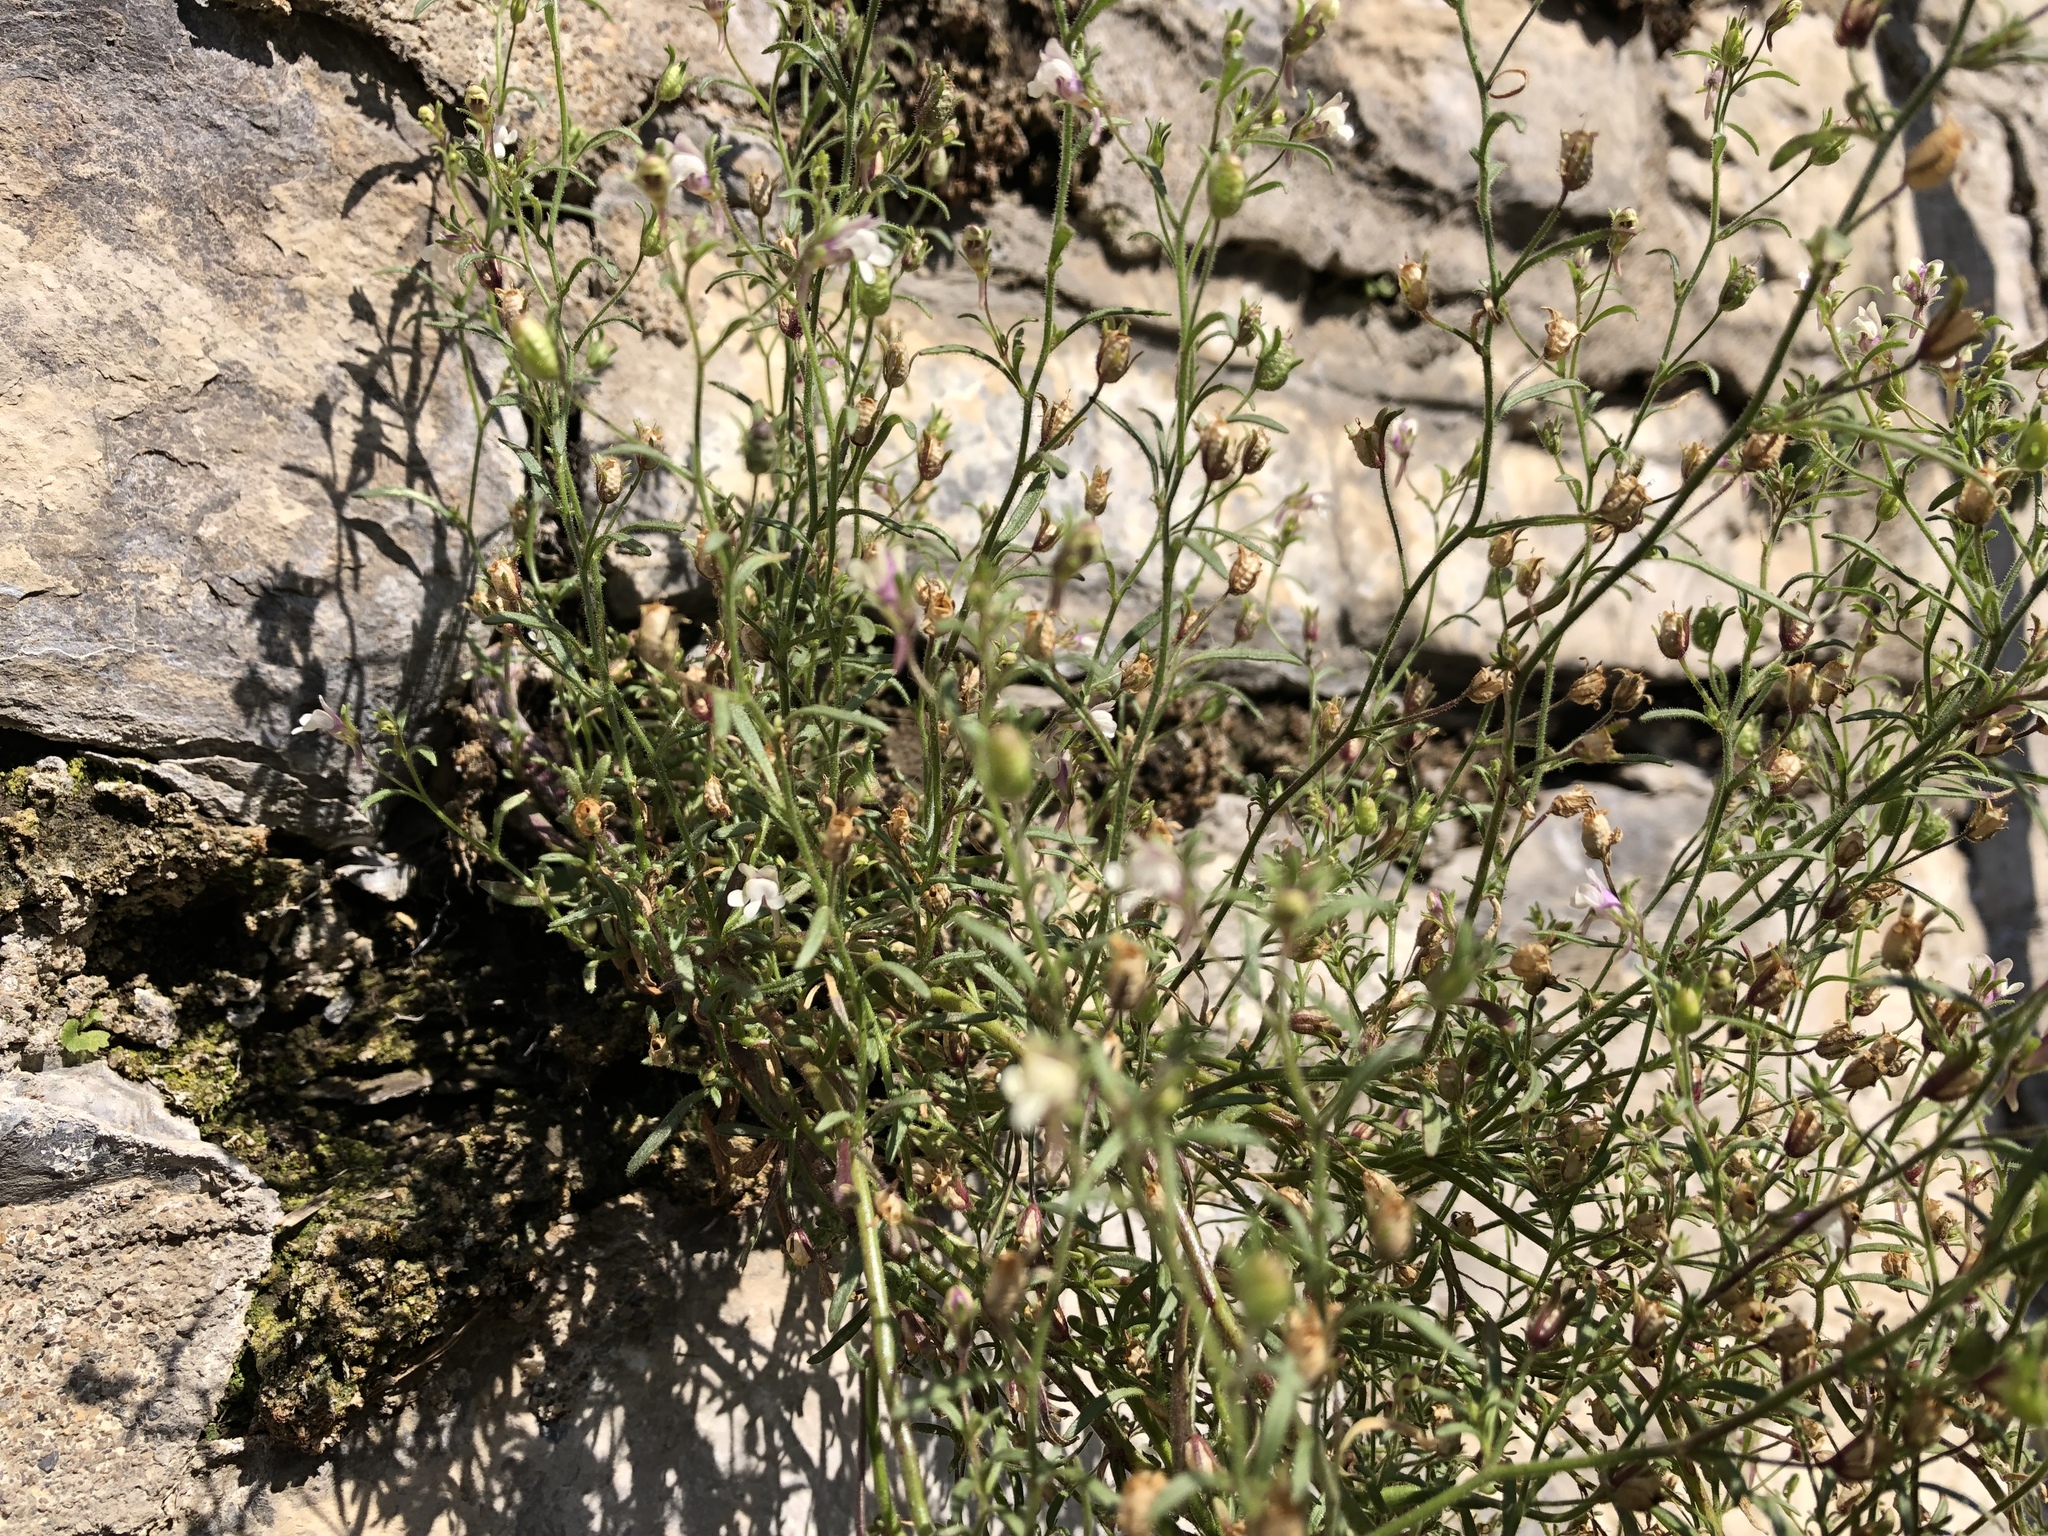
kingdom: Plantae
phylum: Tracheophyta
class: Magnoliopsida
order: Lamiales
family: Plantaginaceae
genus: Chaenorhinum
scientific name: Chaenorhinum minus
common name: Dwarf snapdragon
